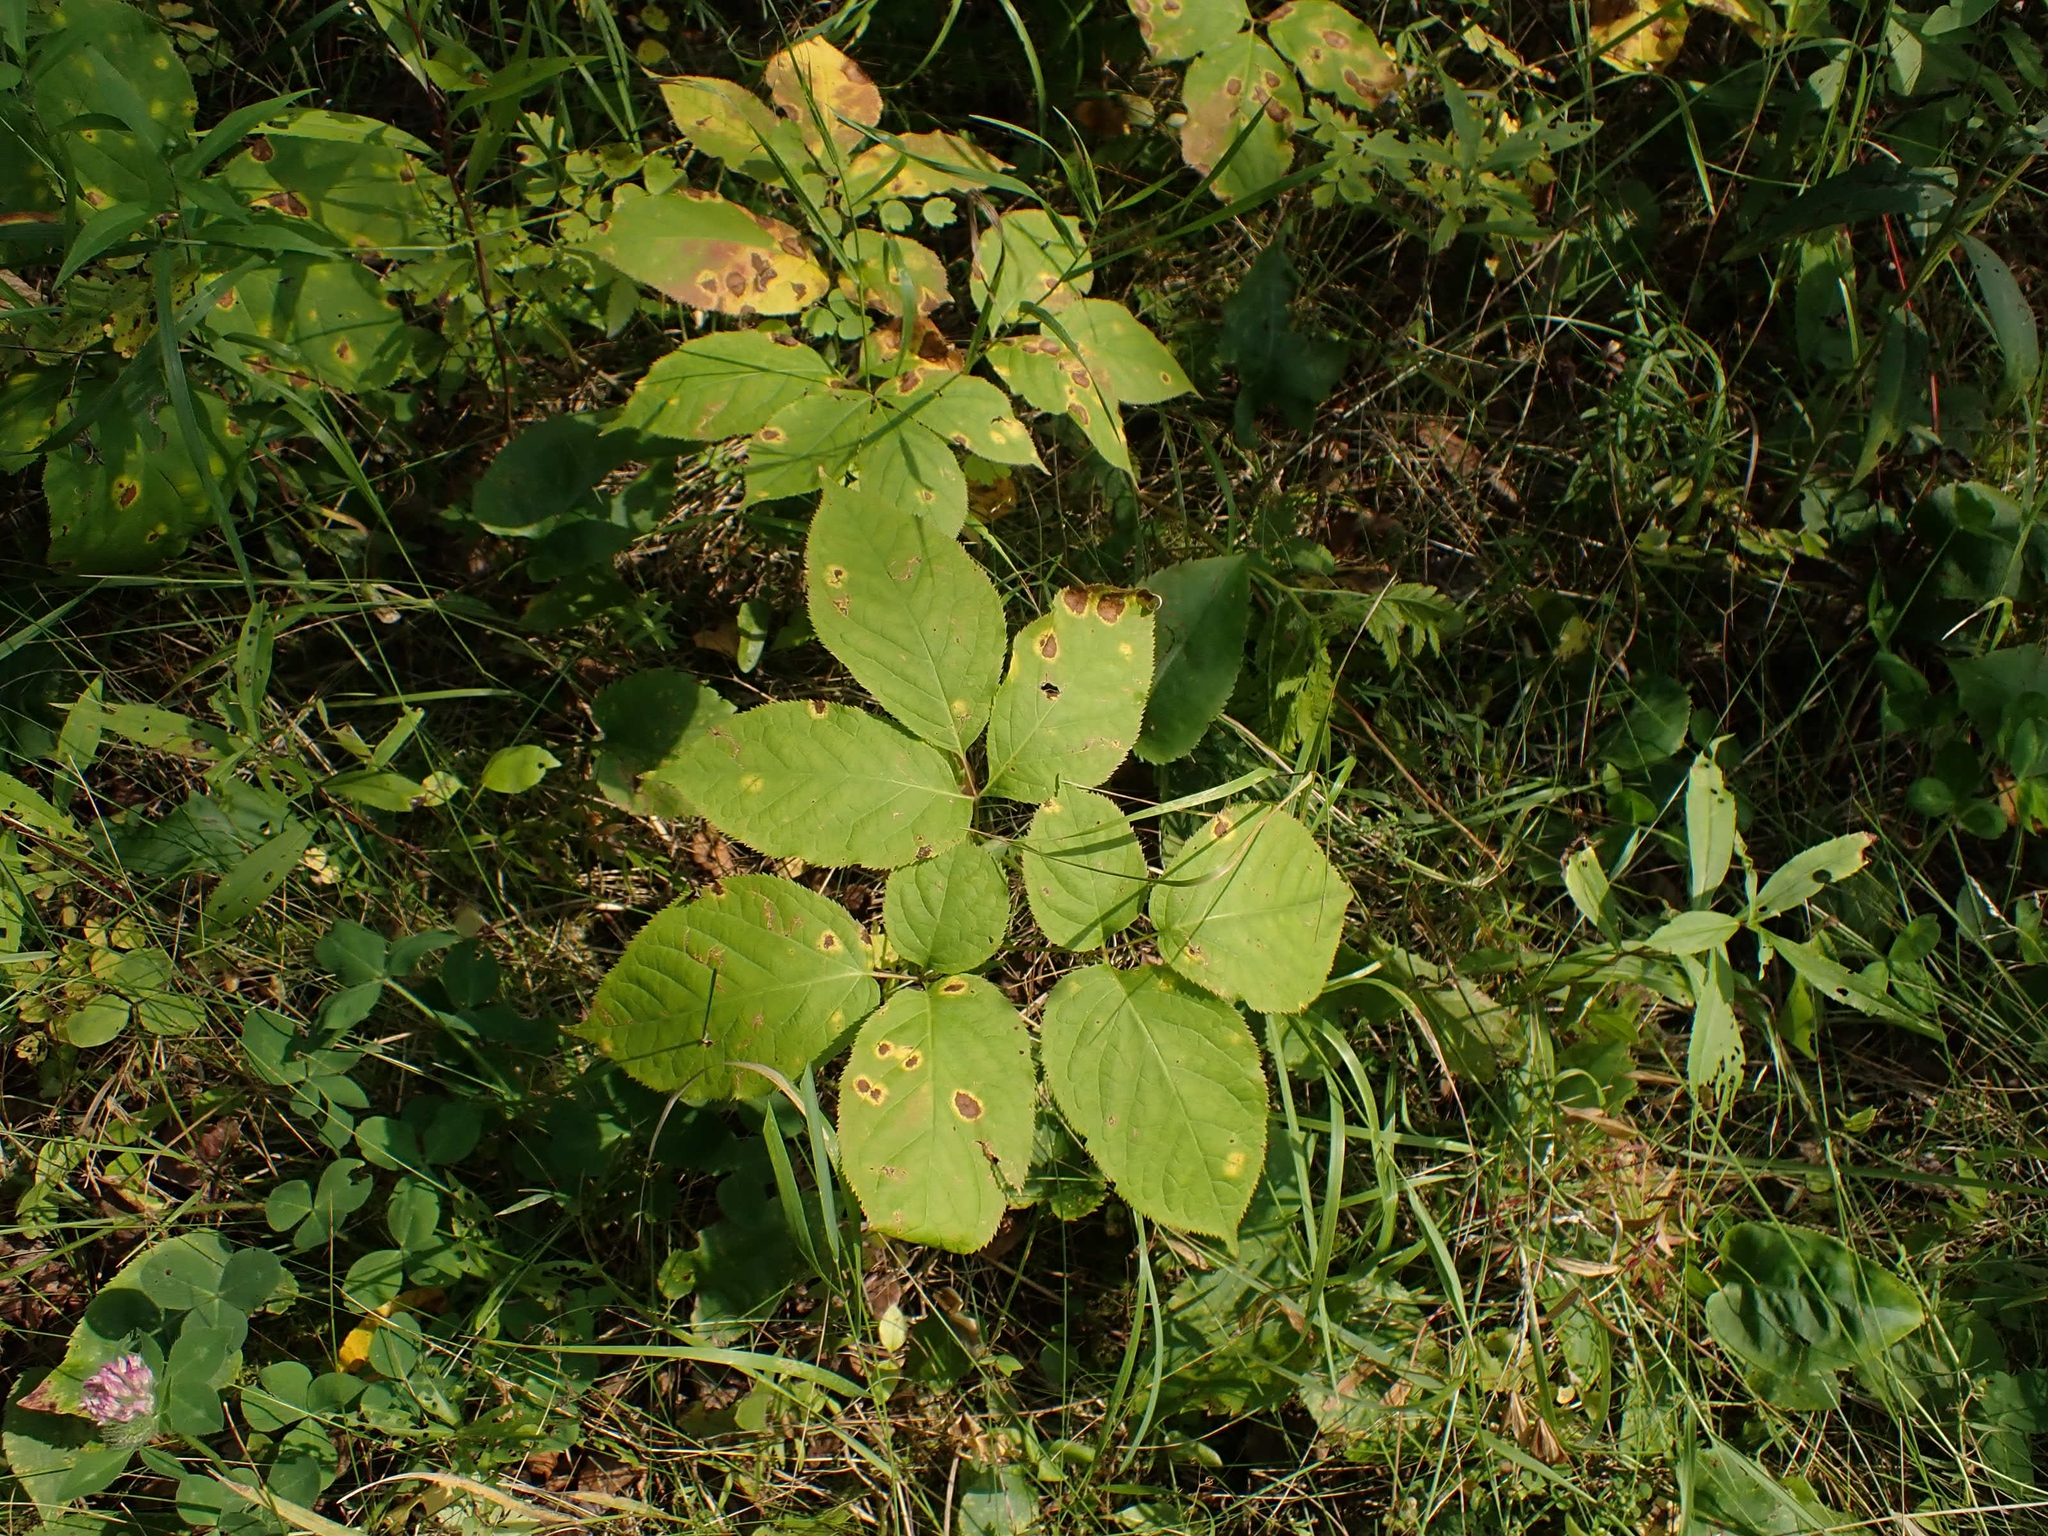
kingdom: Plantae
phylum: Tracheophyta
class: Magnoliopsida
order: Apiales
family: Araliaceae
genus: Aralia
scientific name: Aralia nudicaulis
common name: Wild sarsaparilla
